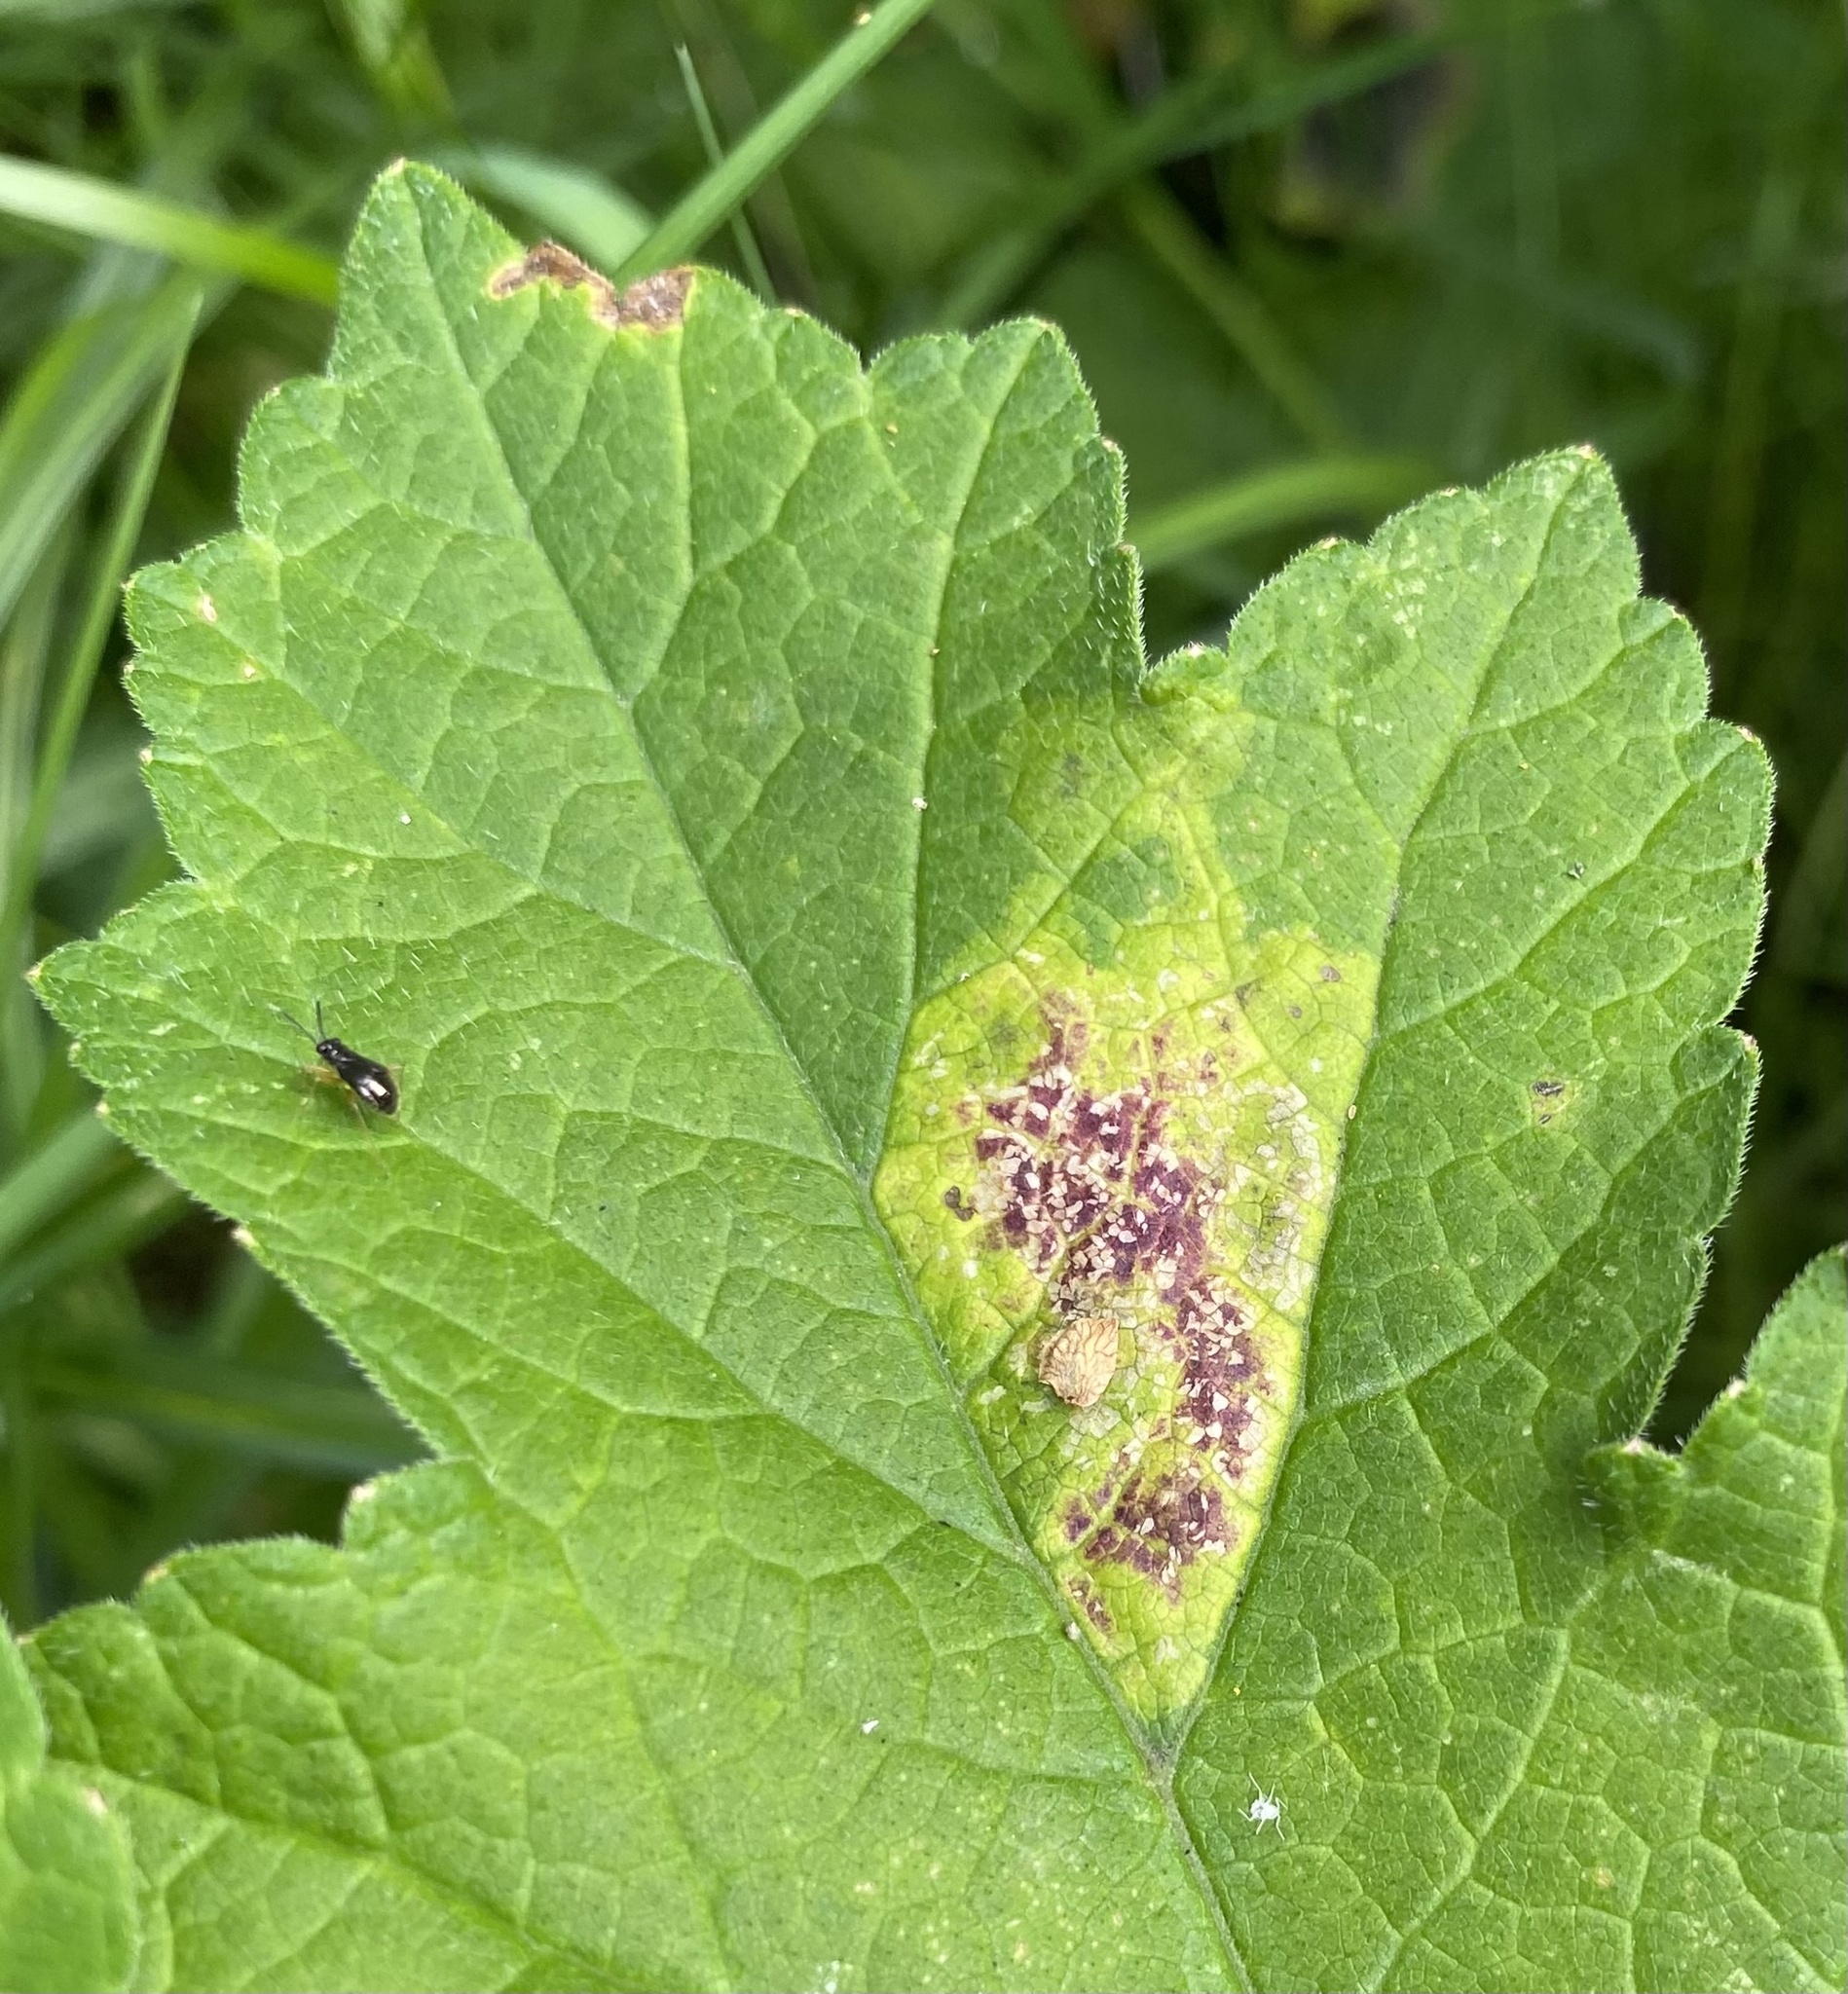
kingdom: Animalia
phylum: Arthropoda
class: Insecta
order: Diptera
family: Agromyzidae
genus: Phytomyza
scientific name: Phytomyza heracleana
